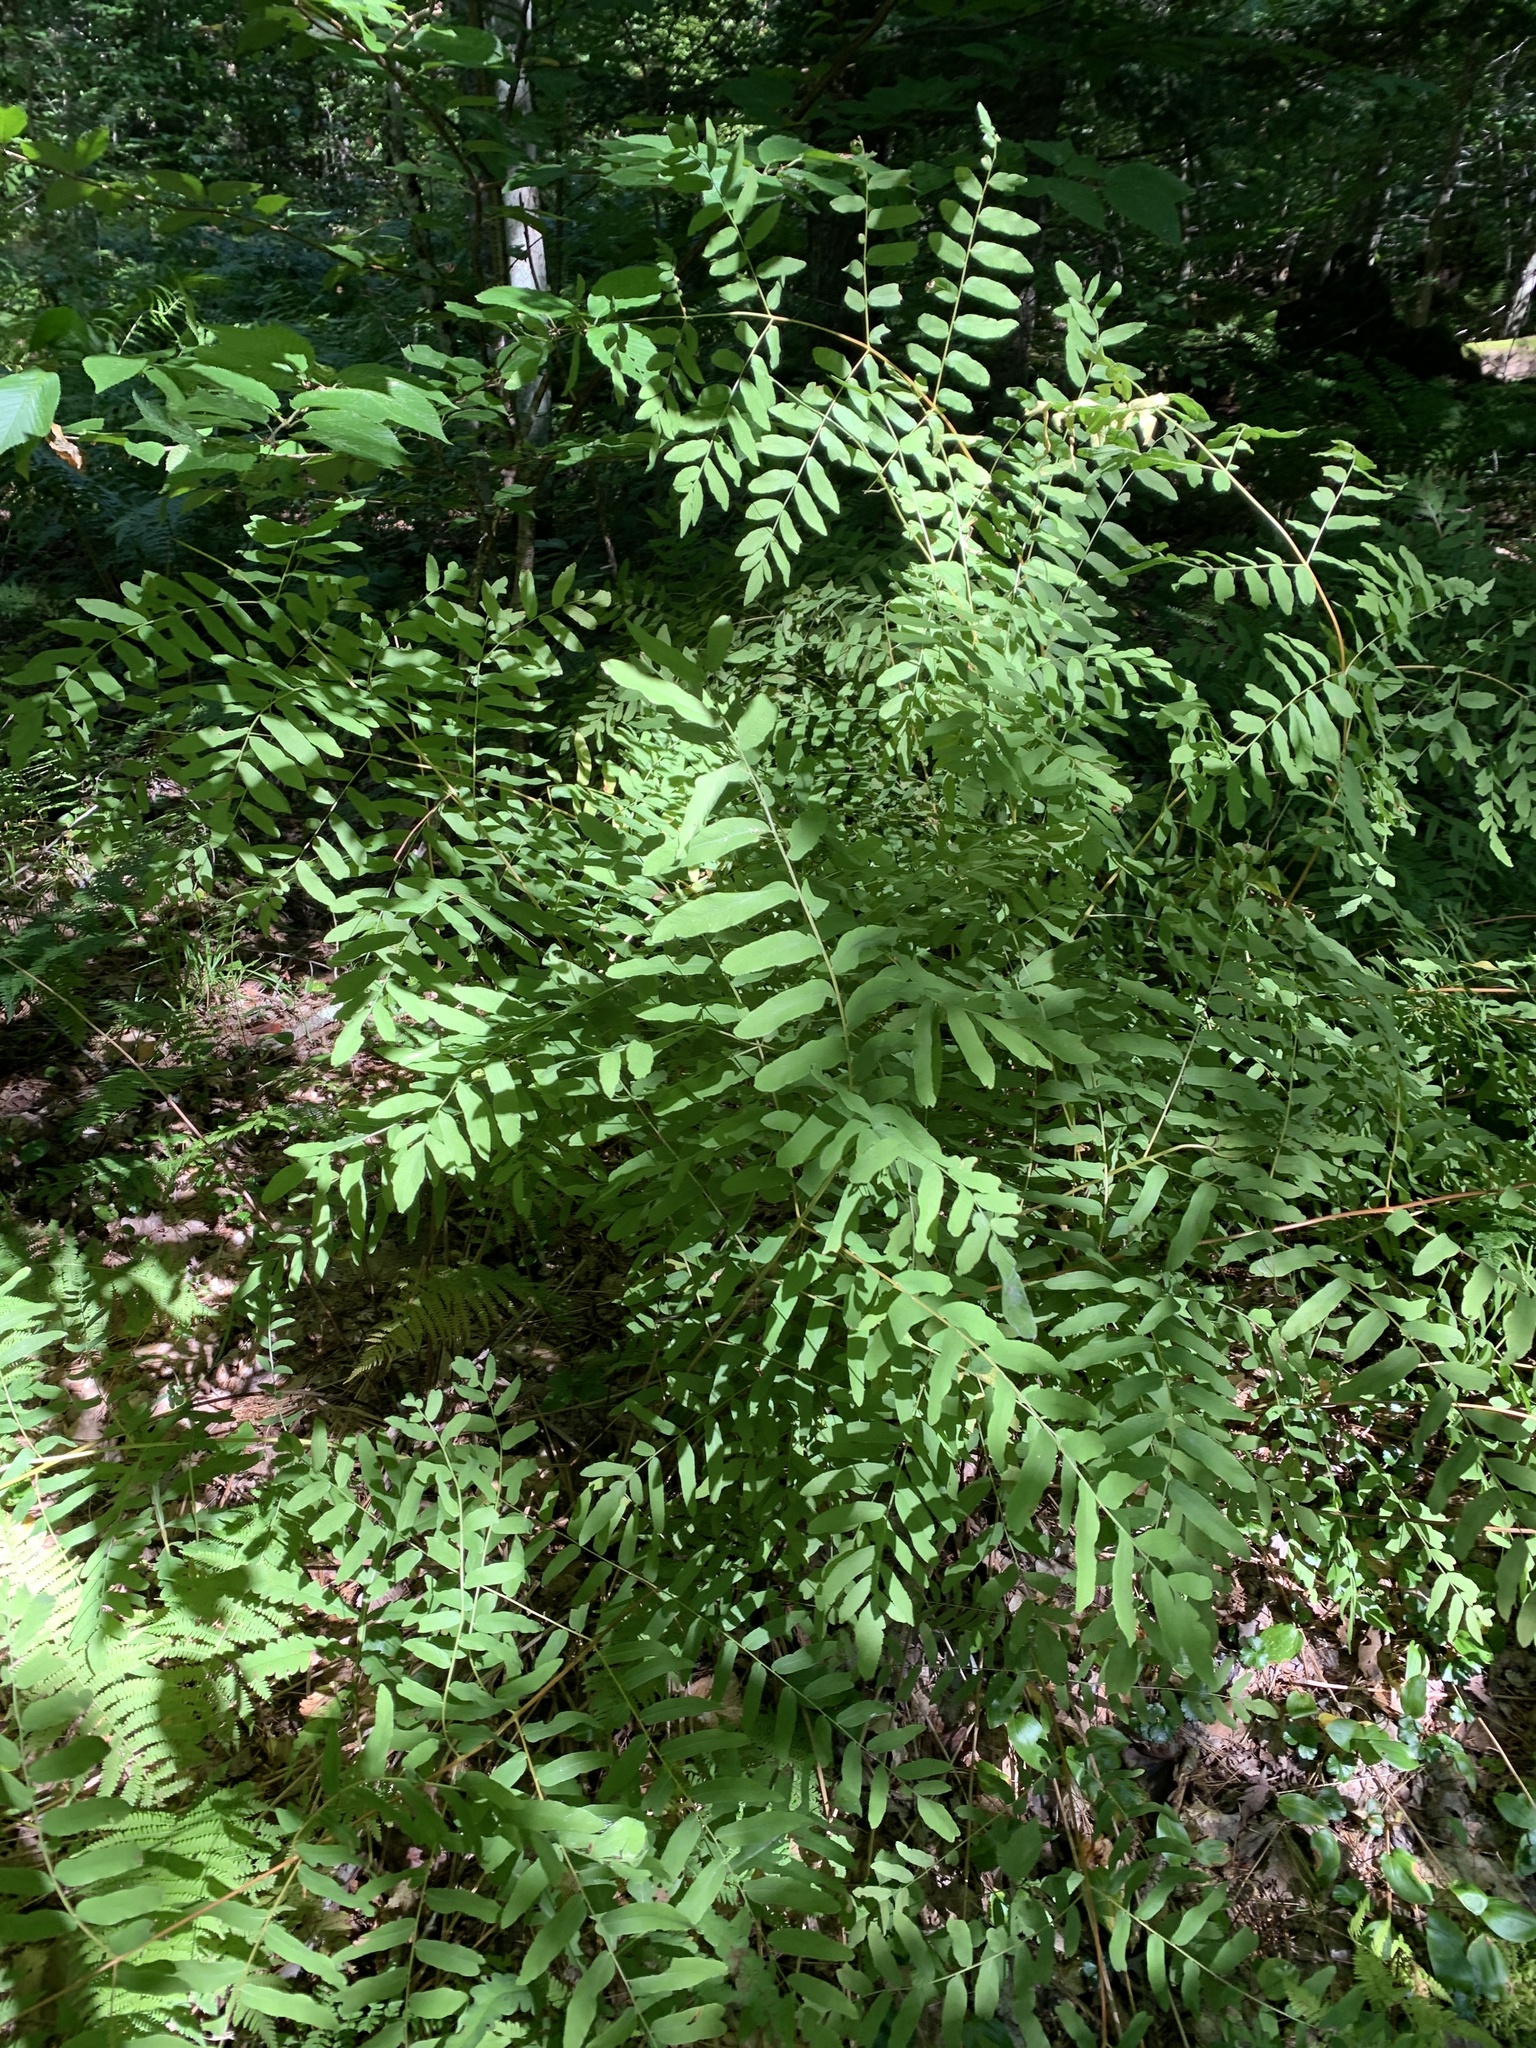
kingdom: Plantae
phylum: Tracheophyta
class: Polypodiopsida
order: Osmundales
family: Osmundaceae
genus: Osmunda
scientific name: Osmunda spectabilis
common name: American royal fern
